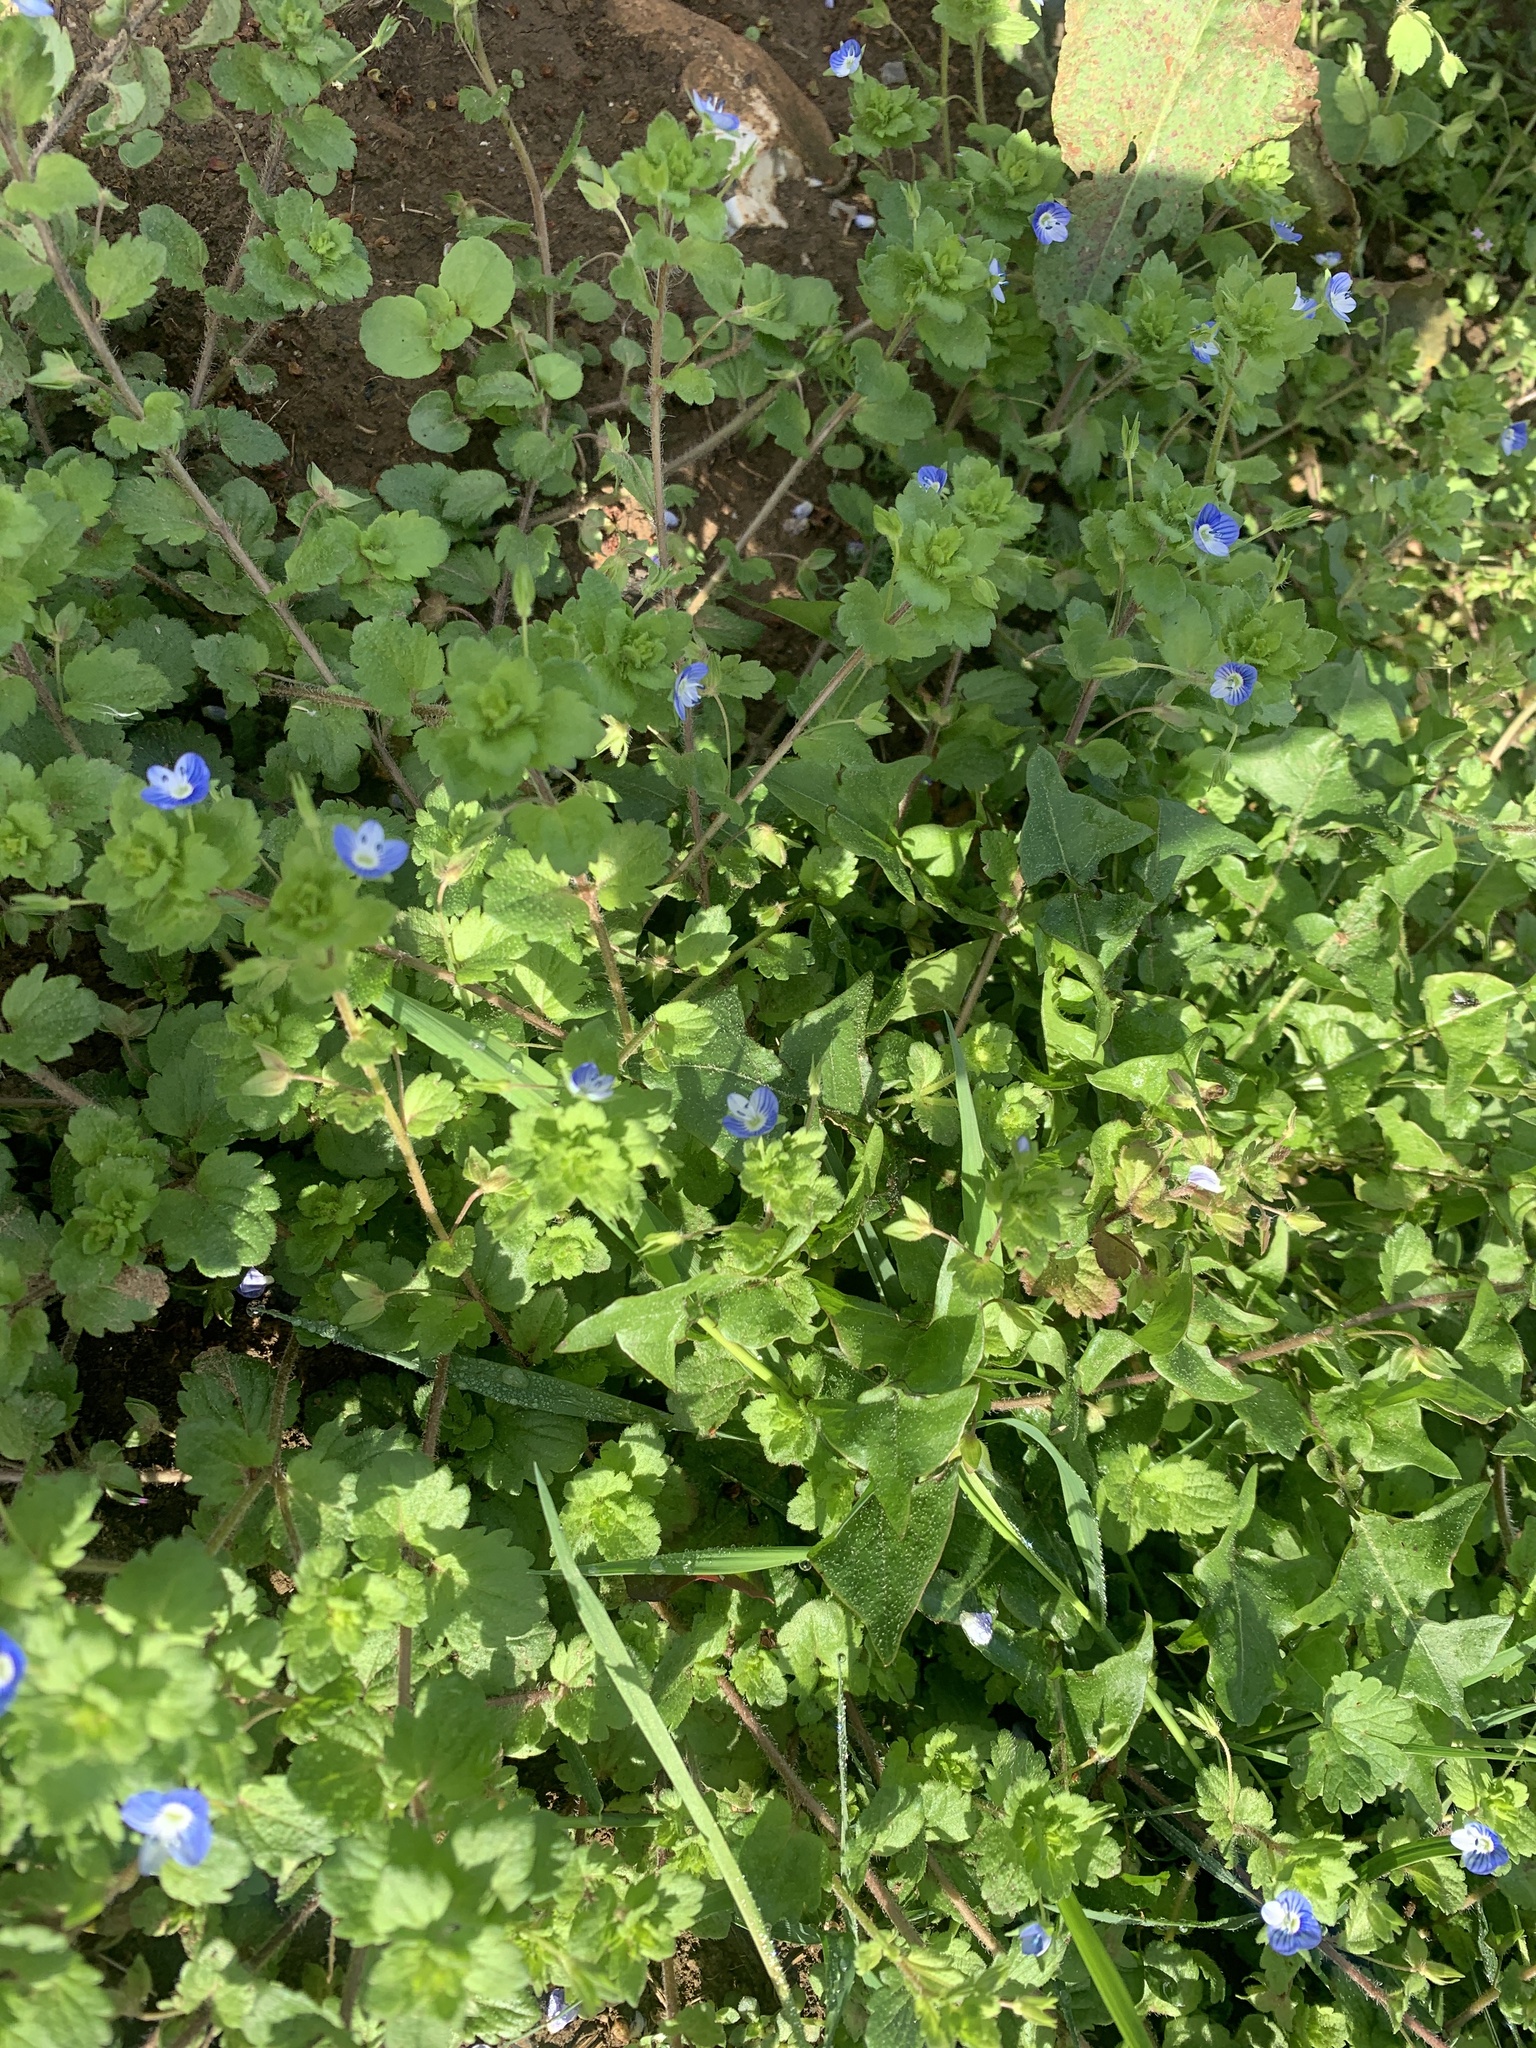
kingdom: Plantae
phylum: Tracheophyta
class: Magnoliopsida
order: Lamiales
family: Plantaginaceae
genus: Veronica
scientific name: Veronica persica
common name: Common field-speedwell
